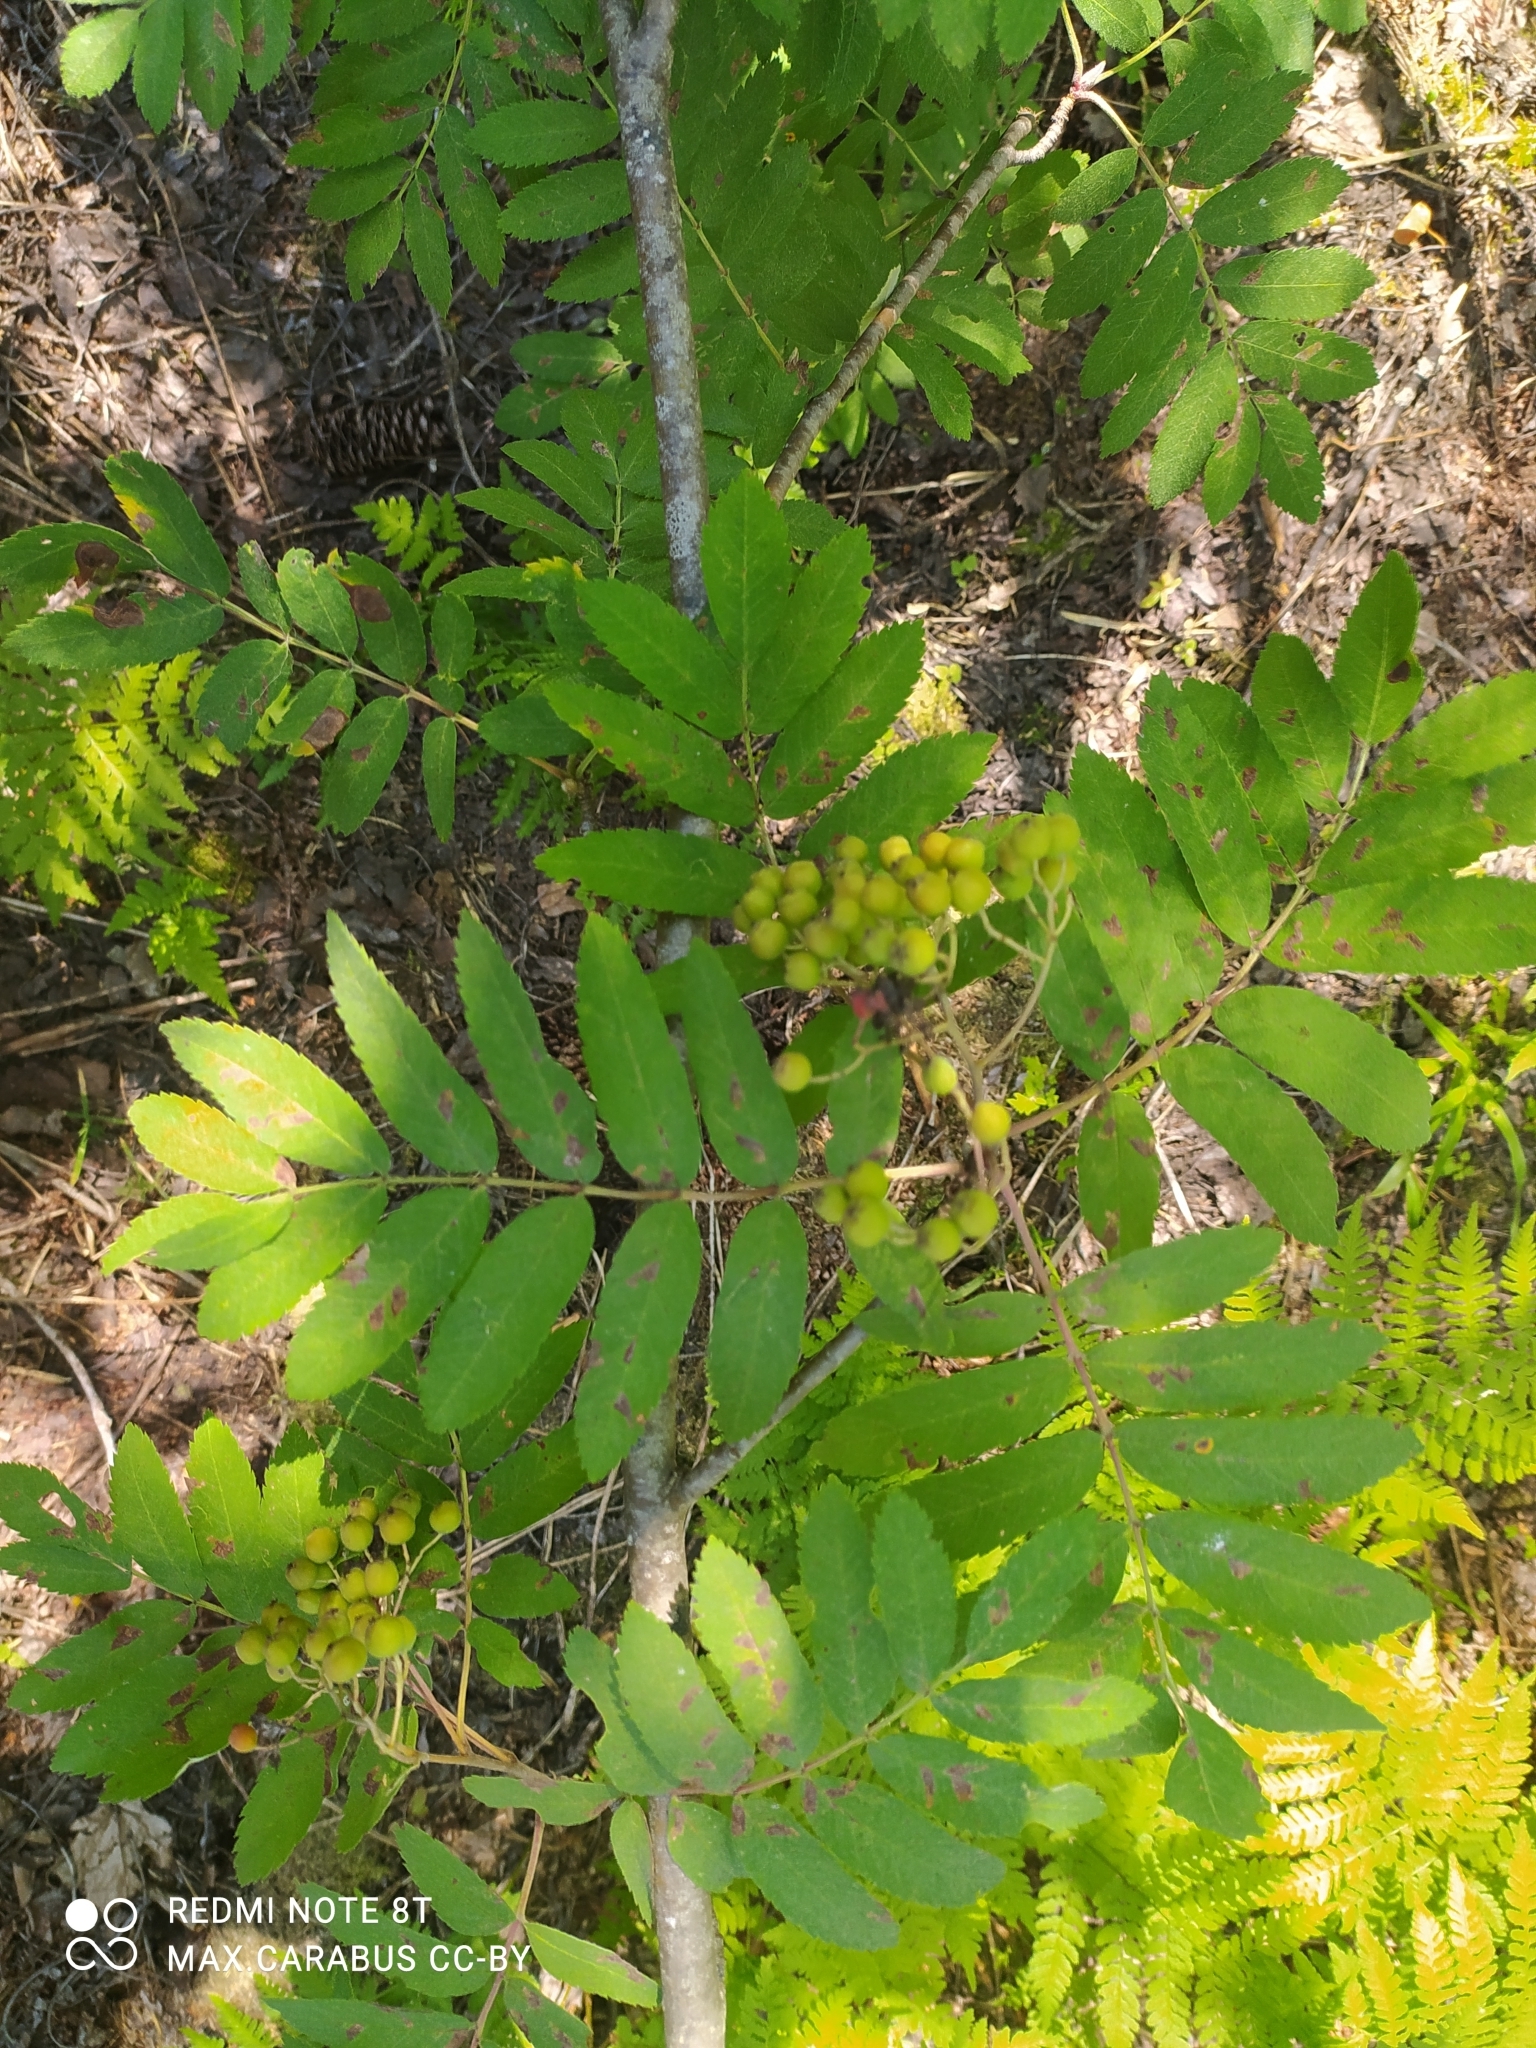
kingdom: Plantae
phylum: Tracheophyta
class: Magnoliopsida
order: Rosales
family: Rosaceae
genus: Sorbus
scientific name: Sorbus aucuparia
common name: Rowan
